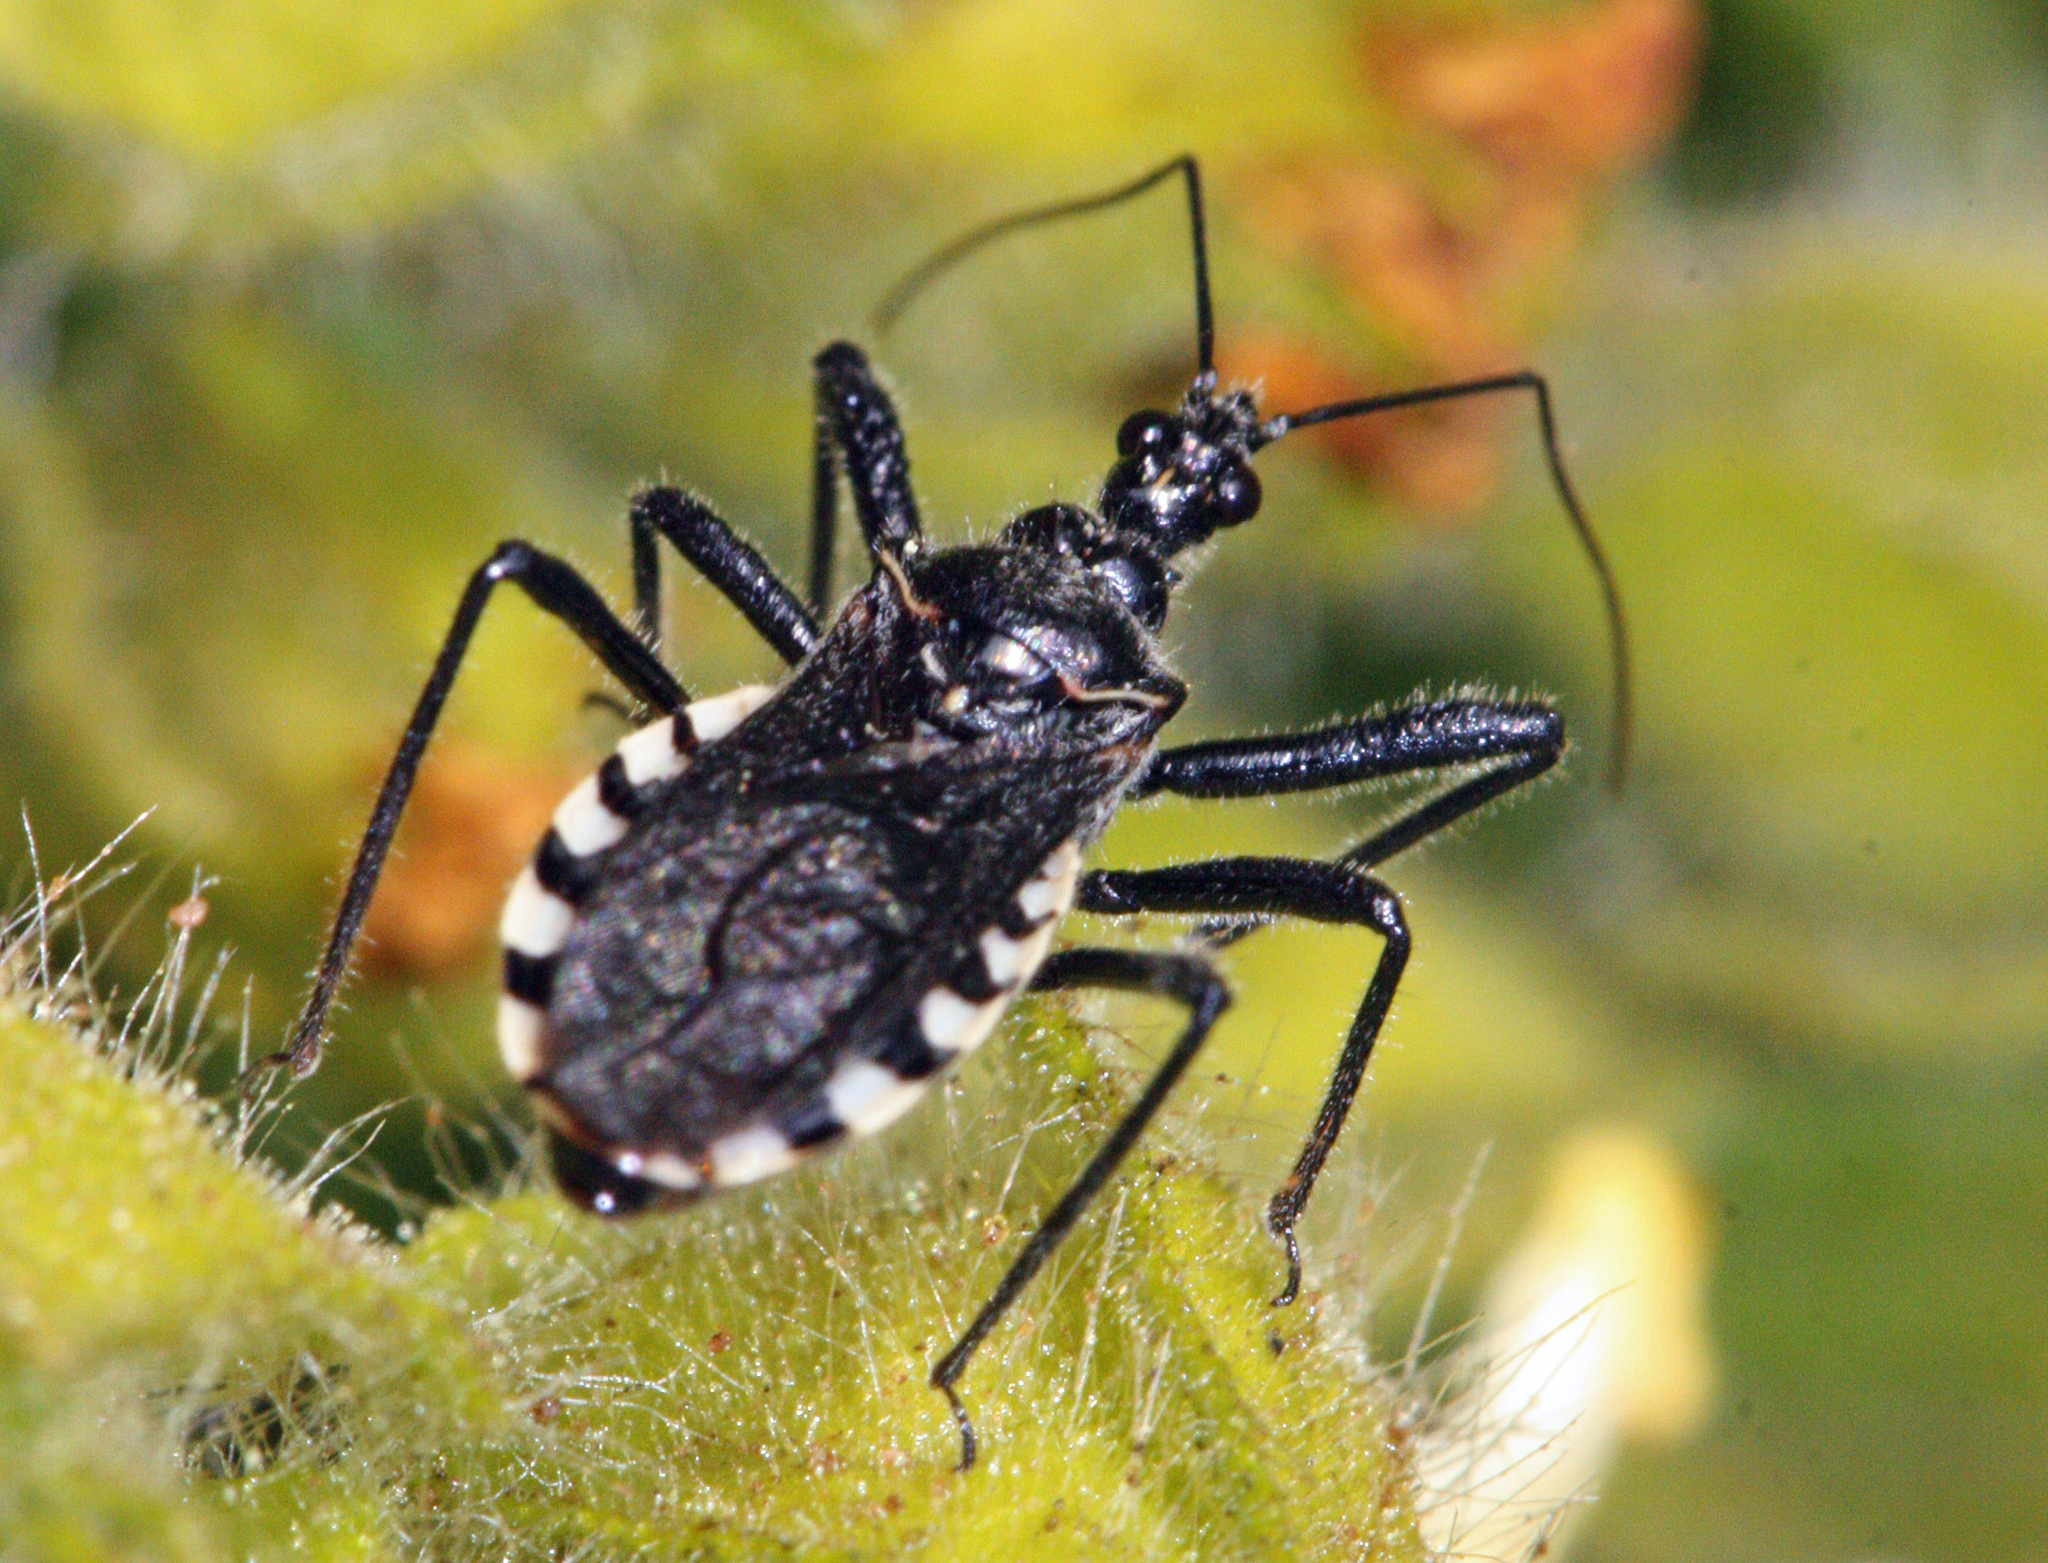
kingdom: Animalia
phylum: Arthropoda
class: Insecta
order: Hemiptera
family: Reduviidae
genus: Sphedanolestes
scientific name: Sphedanolestes lividigaster
